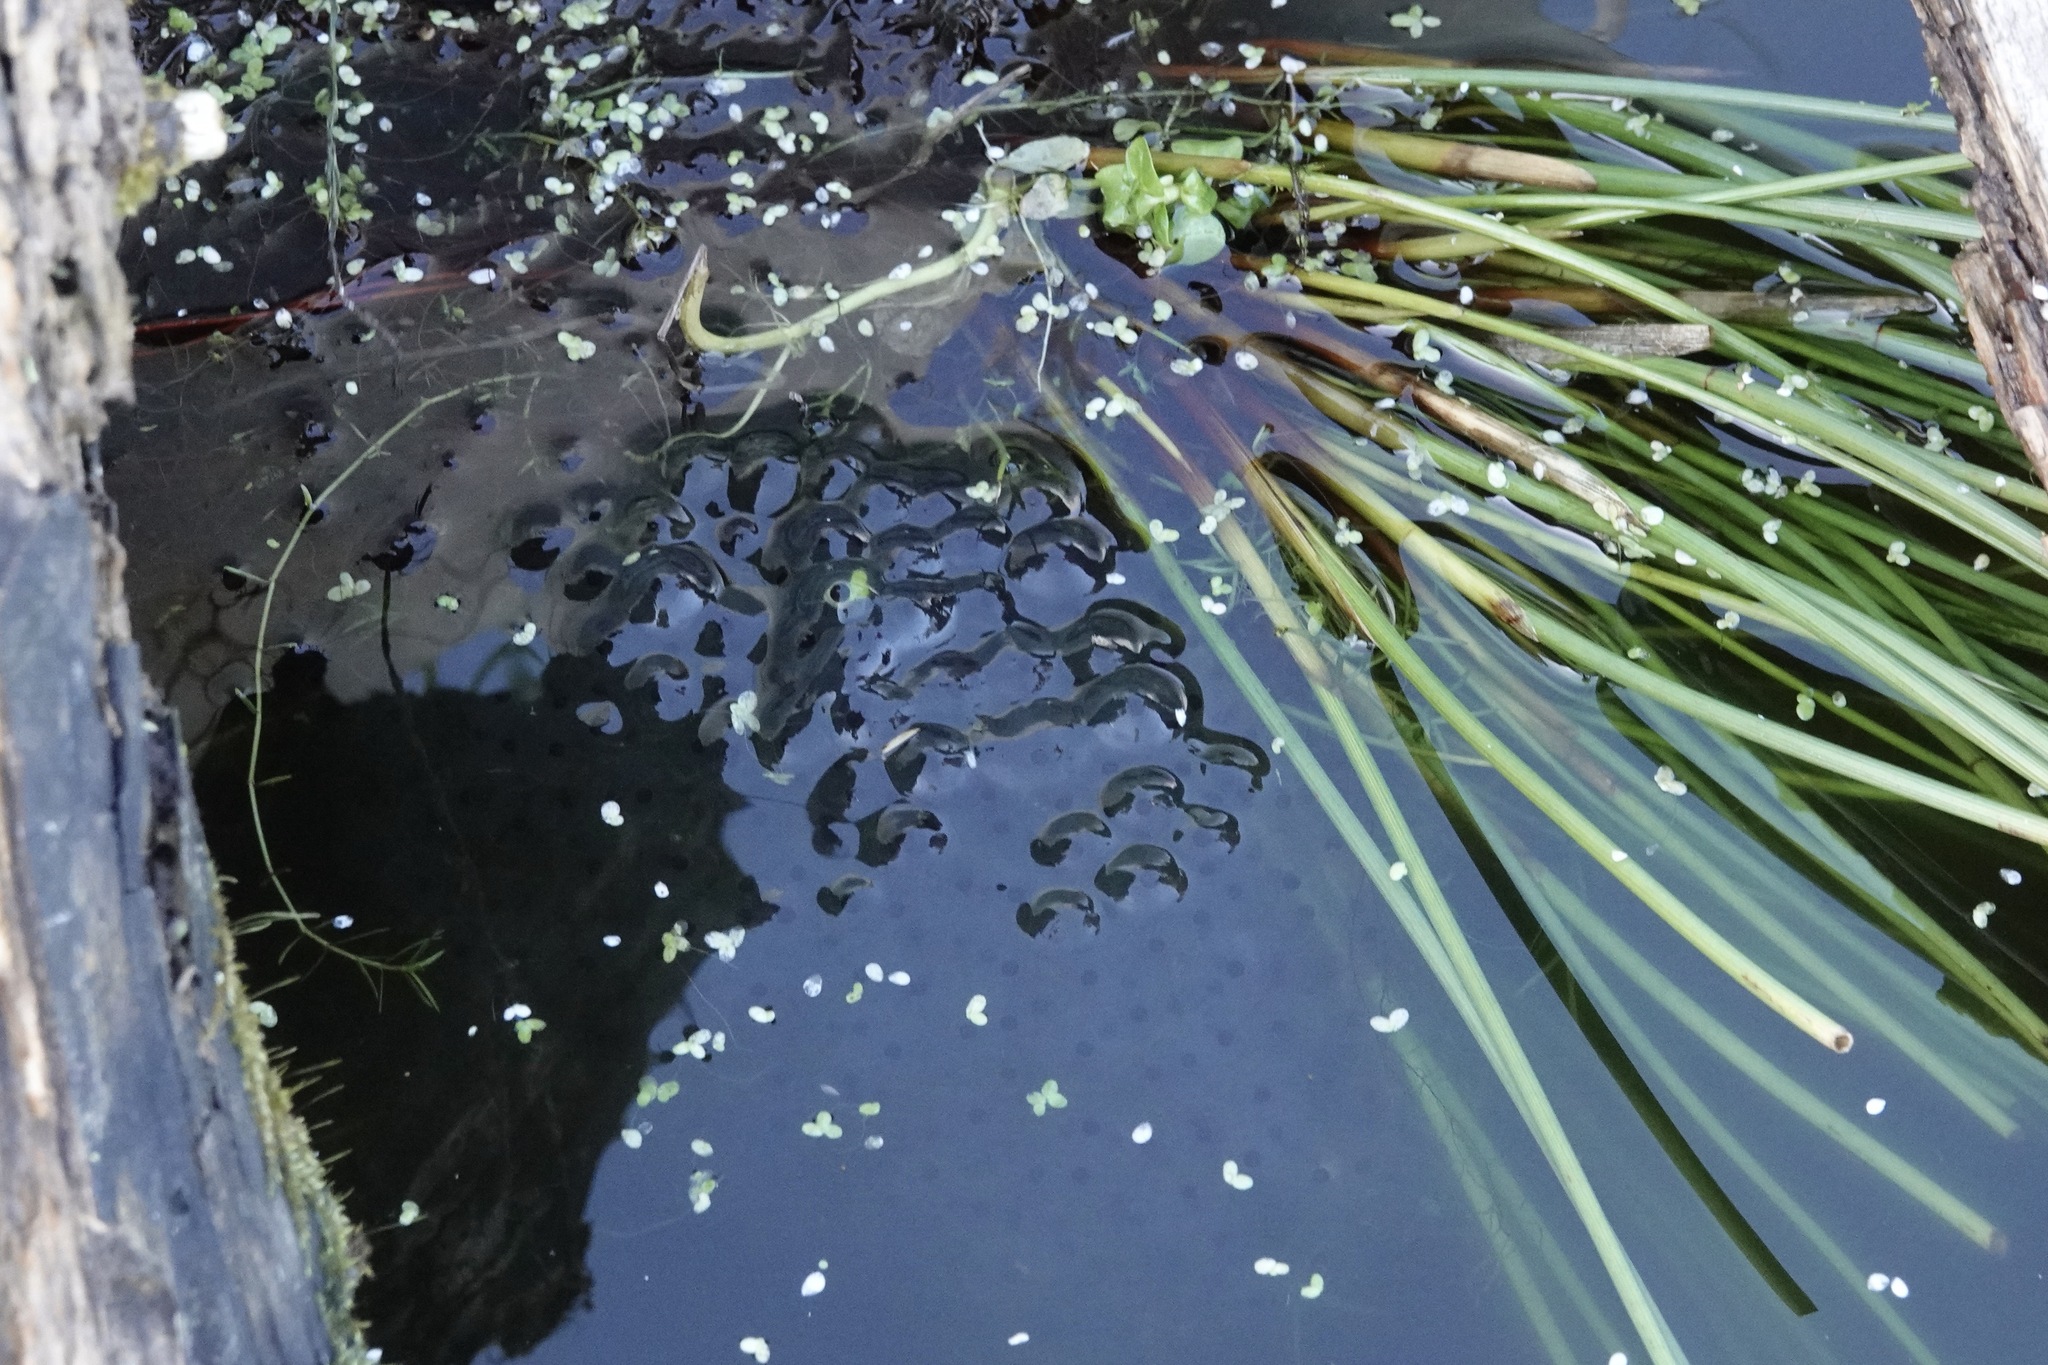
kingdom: Animalia
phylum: Chordata
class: Amphibia
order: Anura
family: Ranidae
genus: Rana
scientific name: Rana temporaria
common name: Common frog
